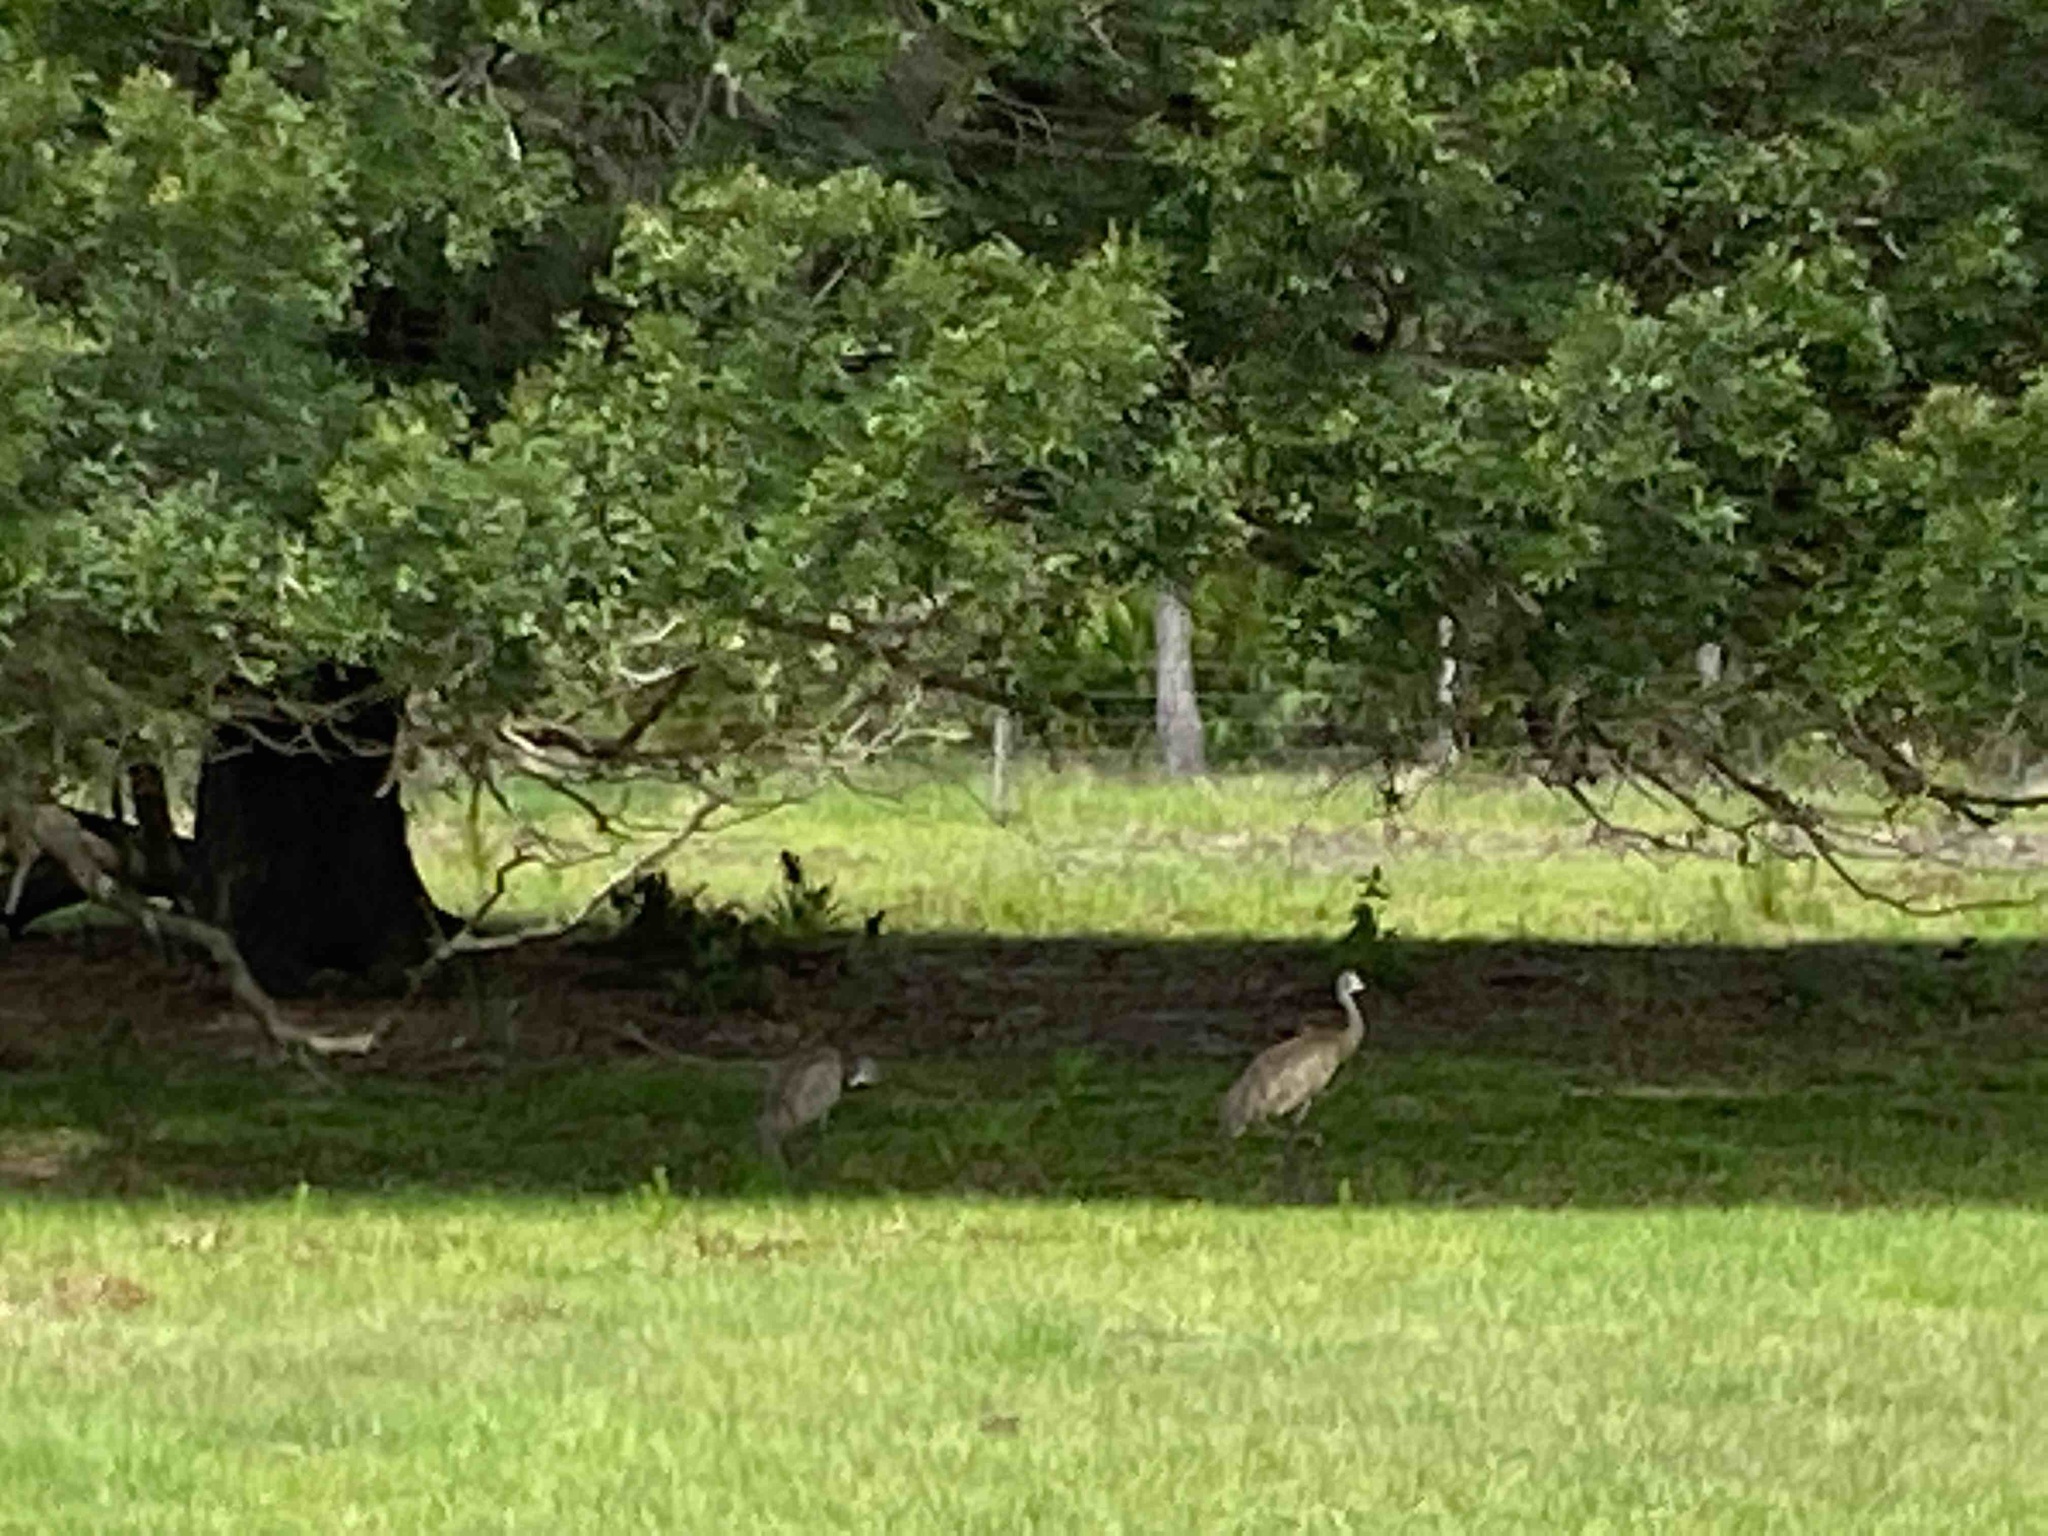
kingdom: Animalia
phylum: Chordata
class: Aves
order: Gruiformes
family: Gruidae
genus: Grus
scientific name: Grus canadensis
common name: Sandhill crane
